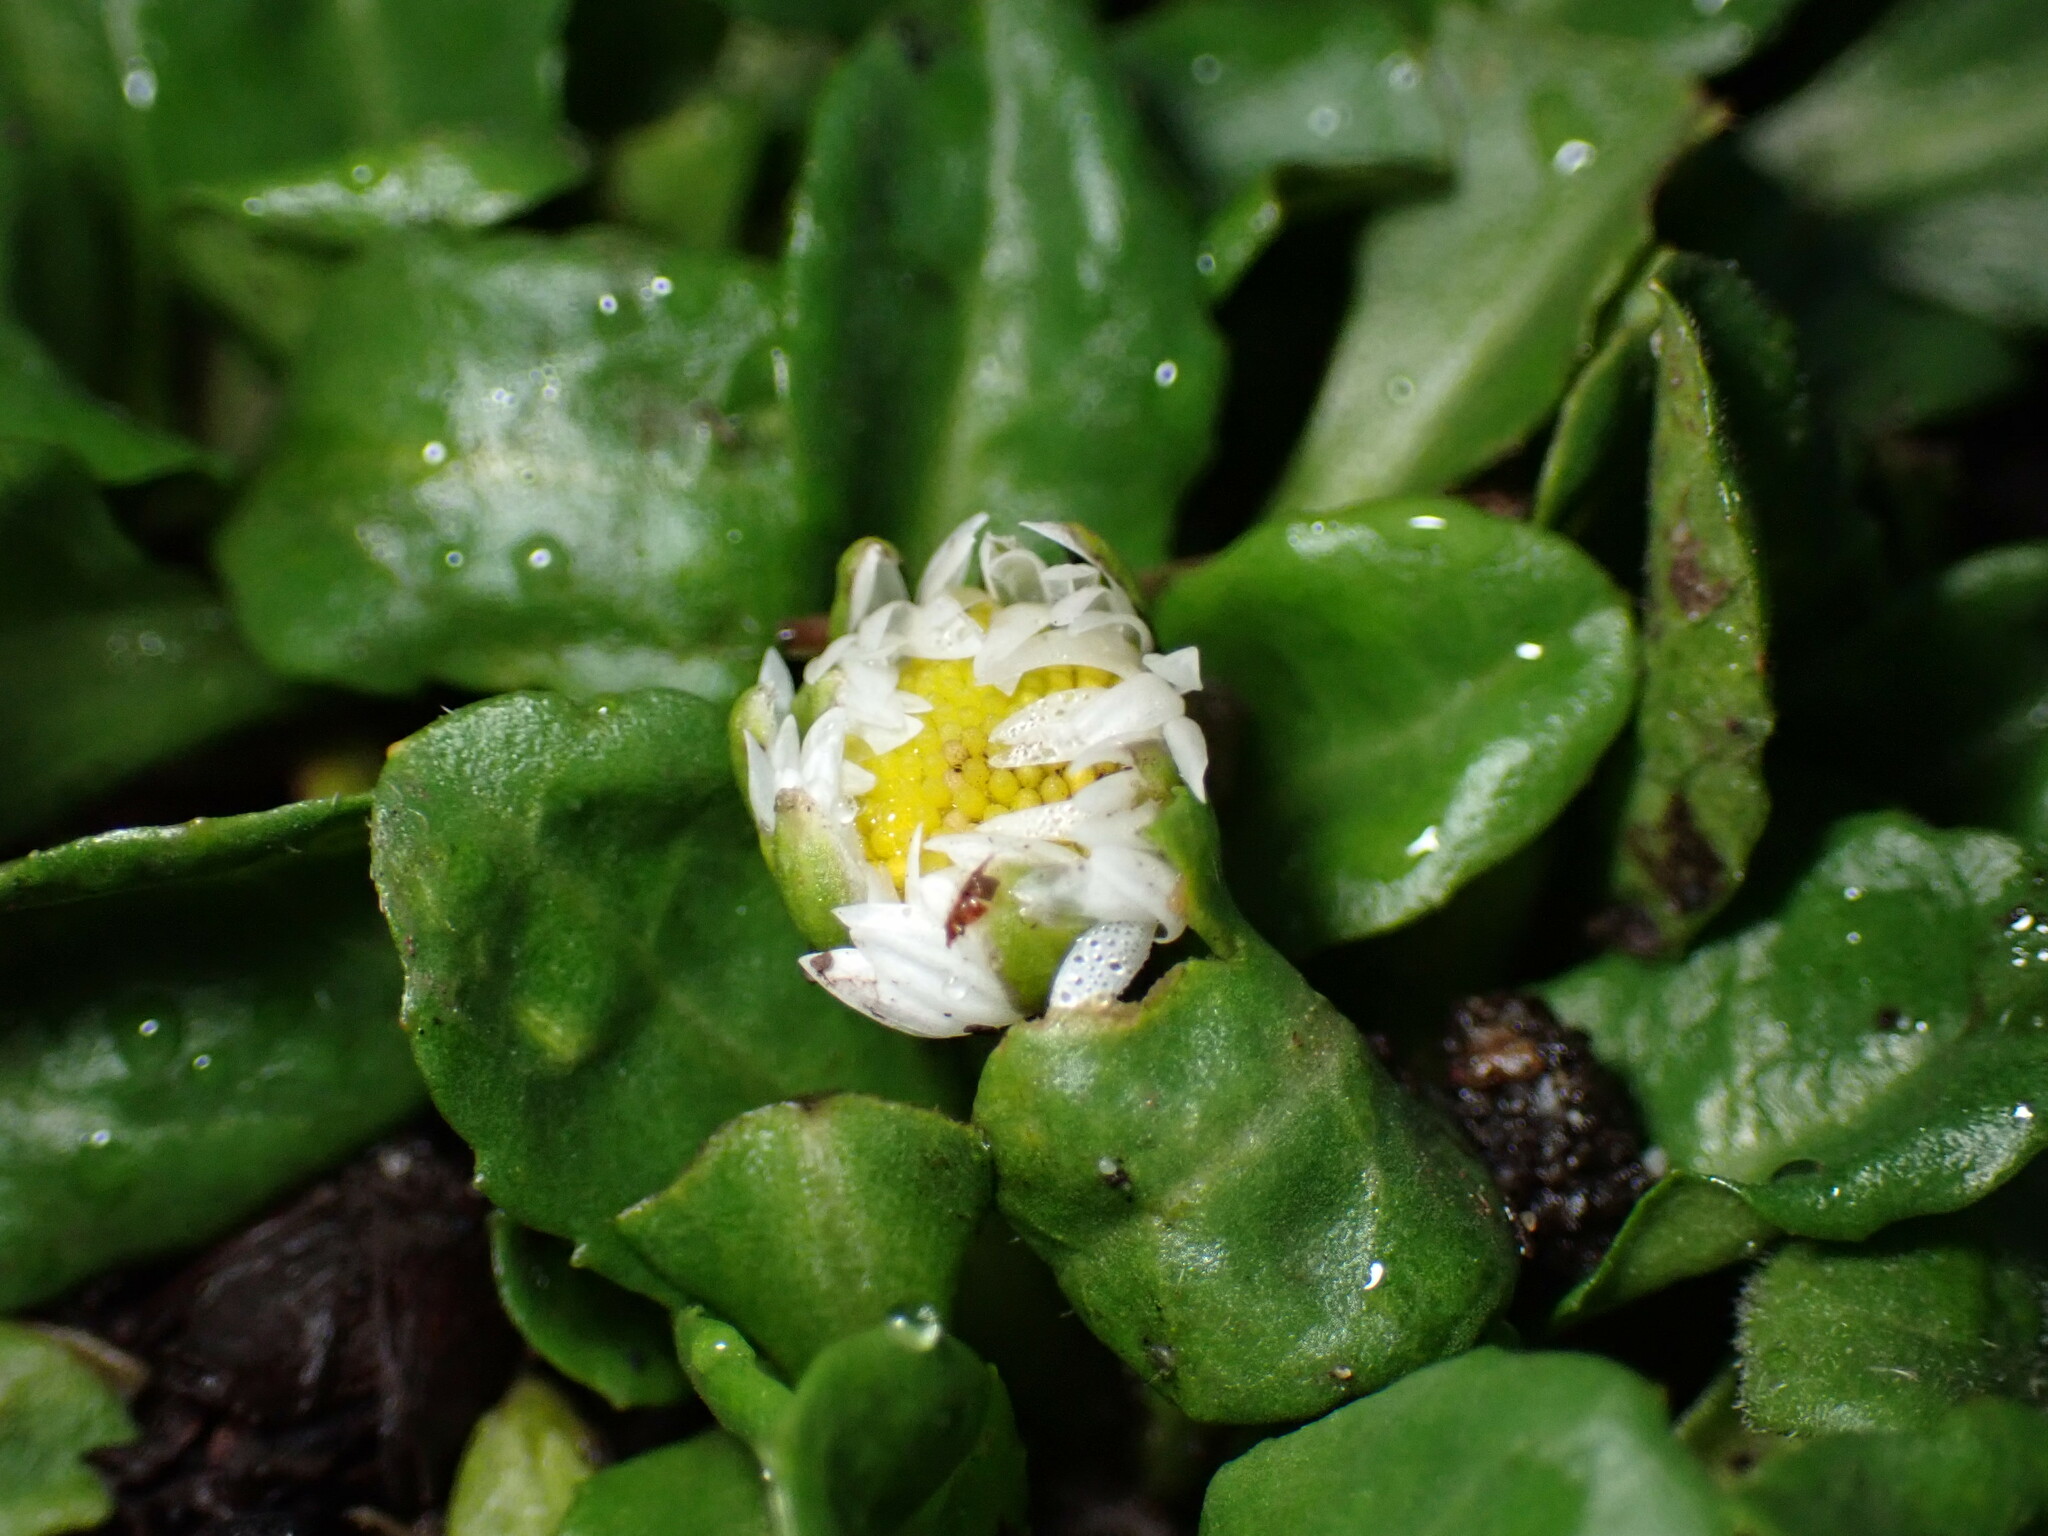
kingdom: Plantae
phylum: Tracheophyta
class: Magnoliopsida
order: Asterales
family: Asteraceae
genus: Bellis
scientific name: Bellis perennis
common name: Lawndaisy
